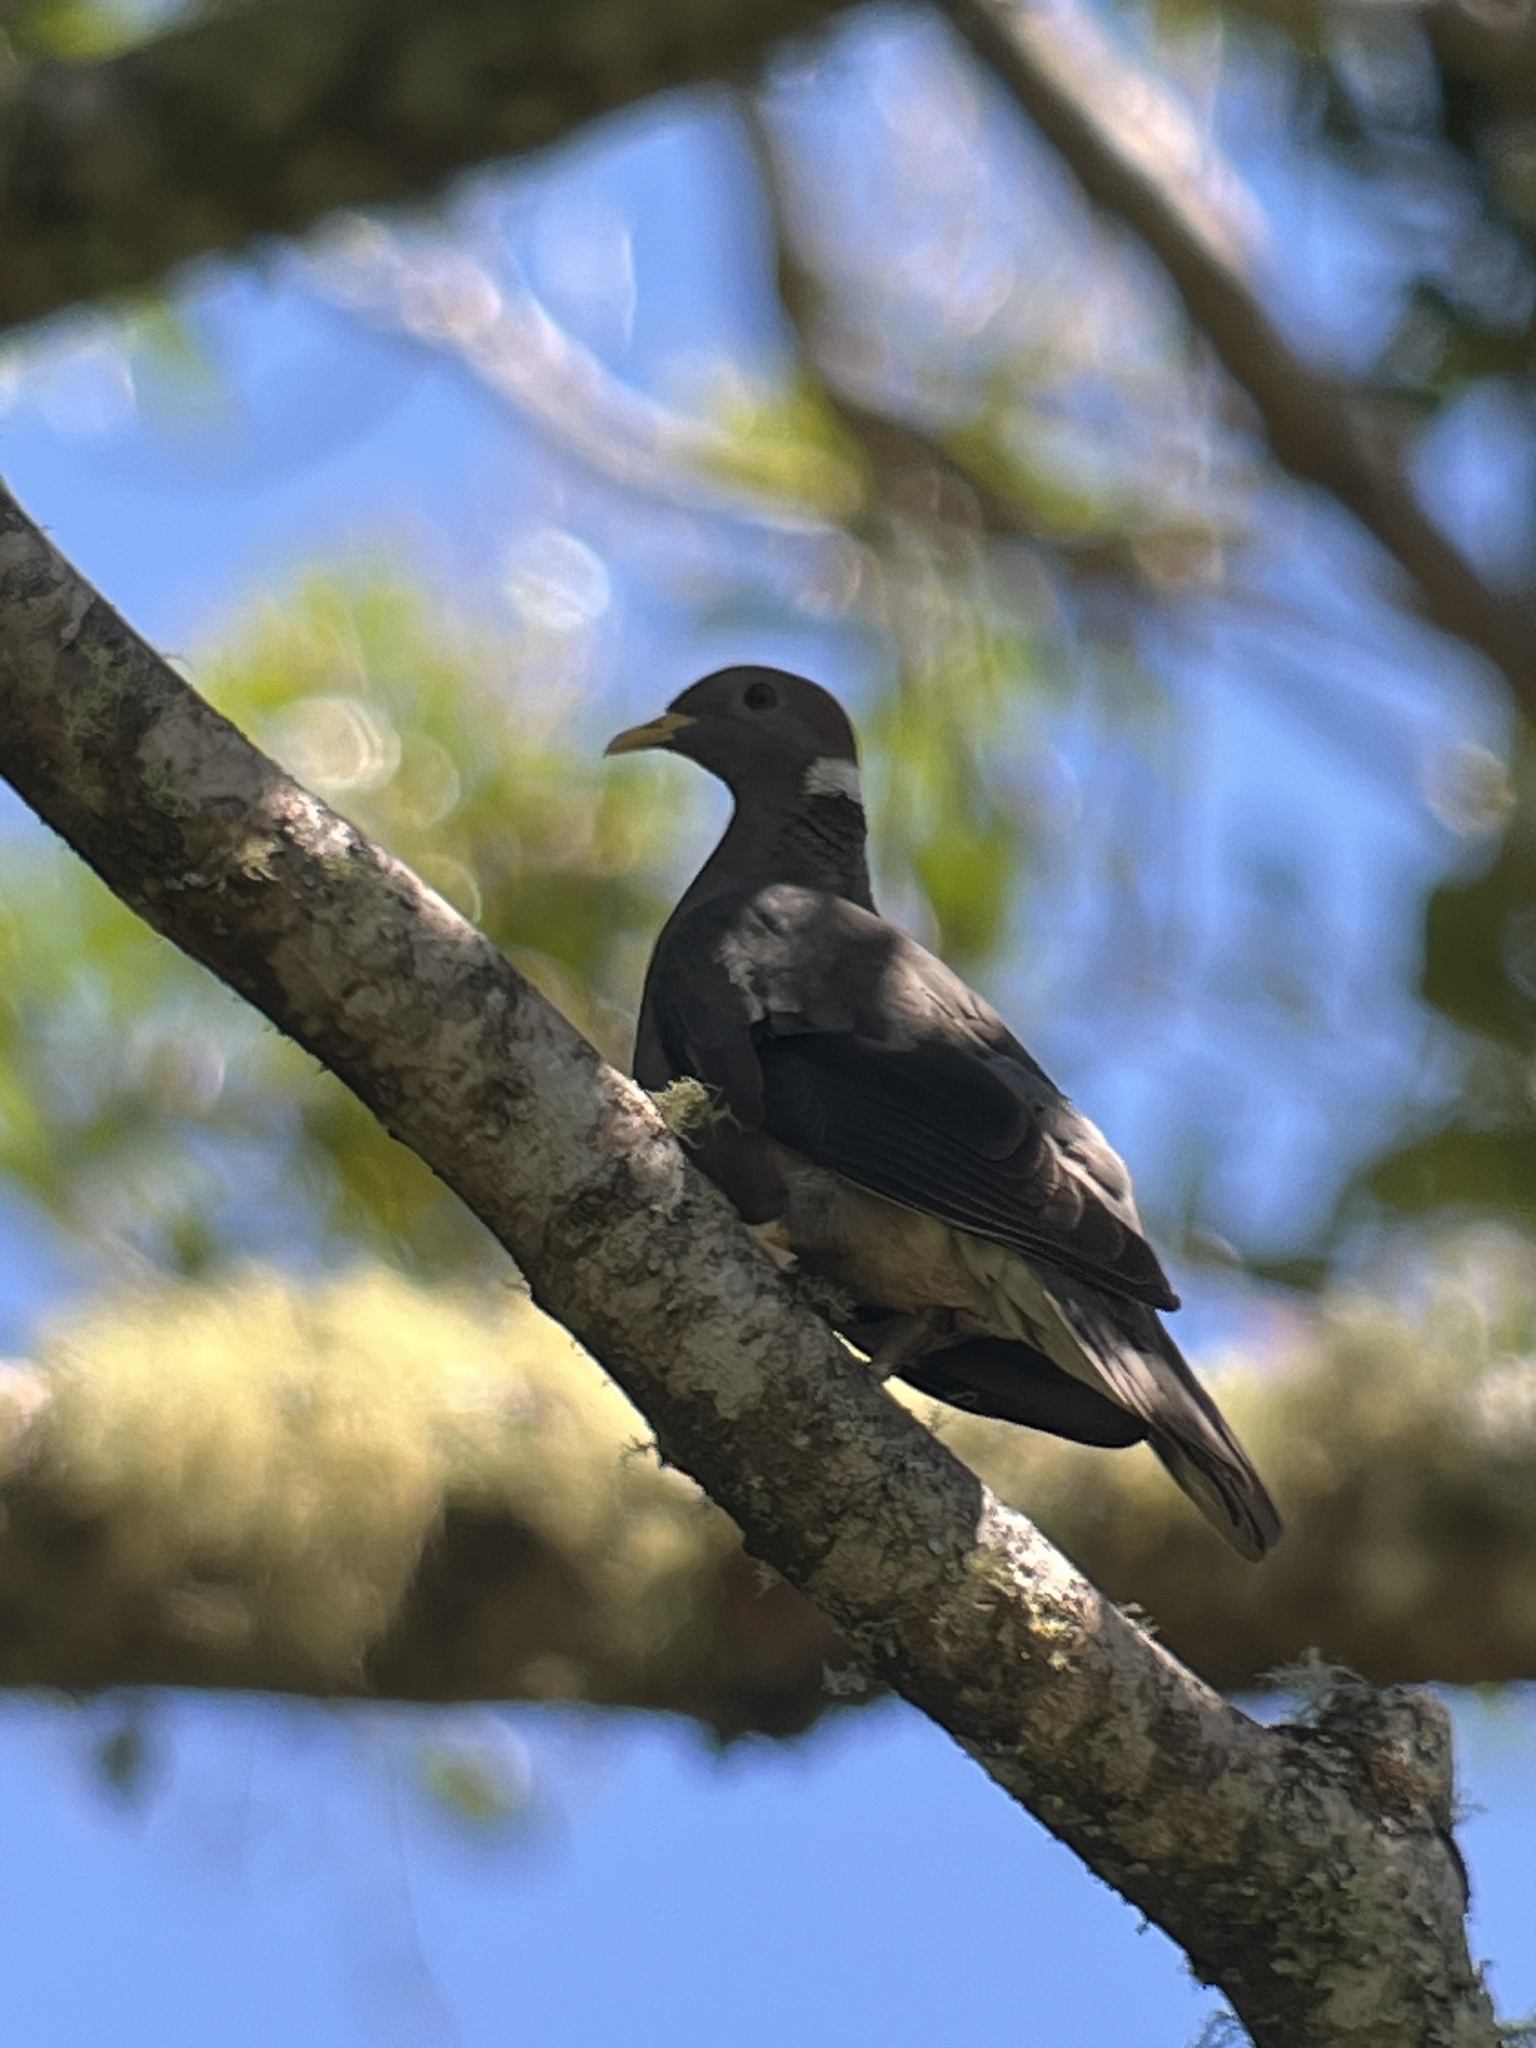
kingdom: Animalia
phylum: Chordata
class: Aves
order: Columbiformes
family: Columbidae
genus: Patagioenas
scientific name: Patagioenas fasciata
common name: Band-tailed pigeon
